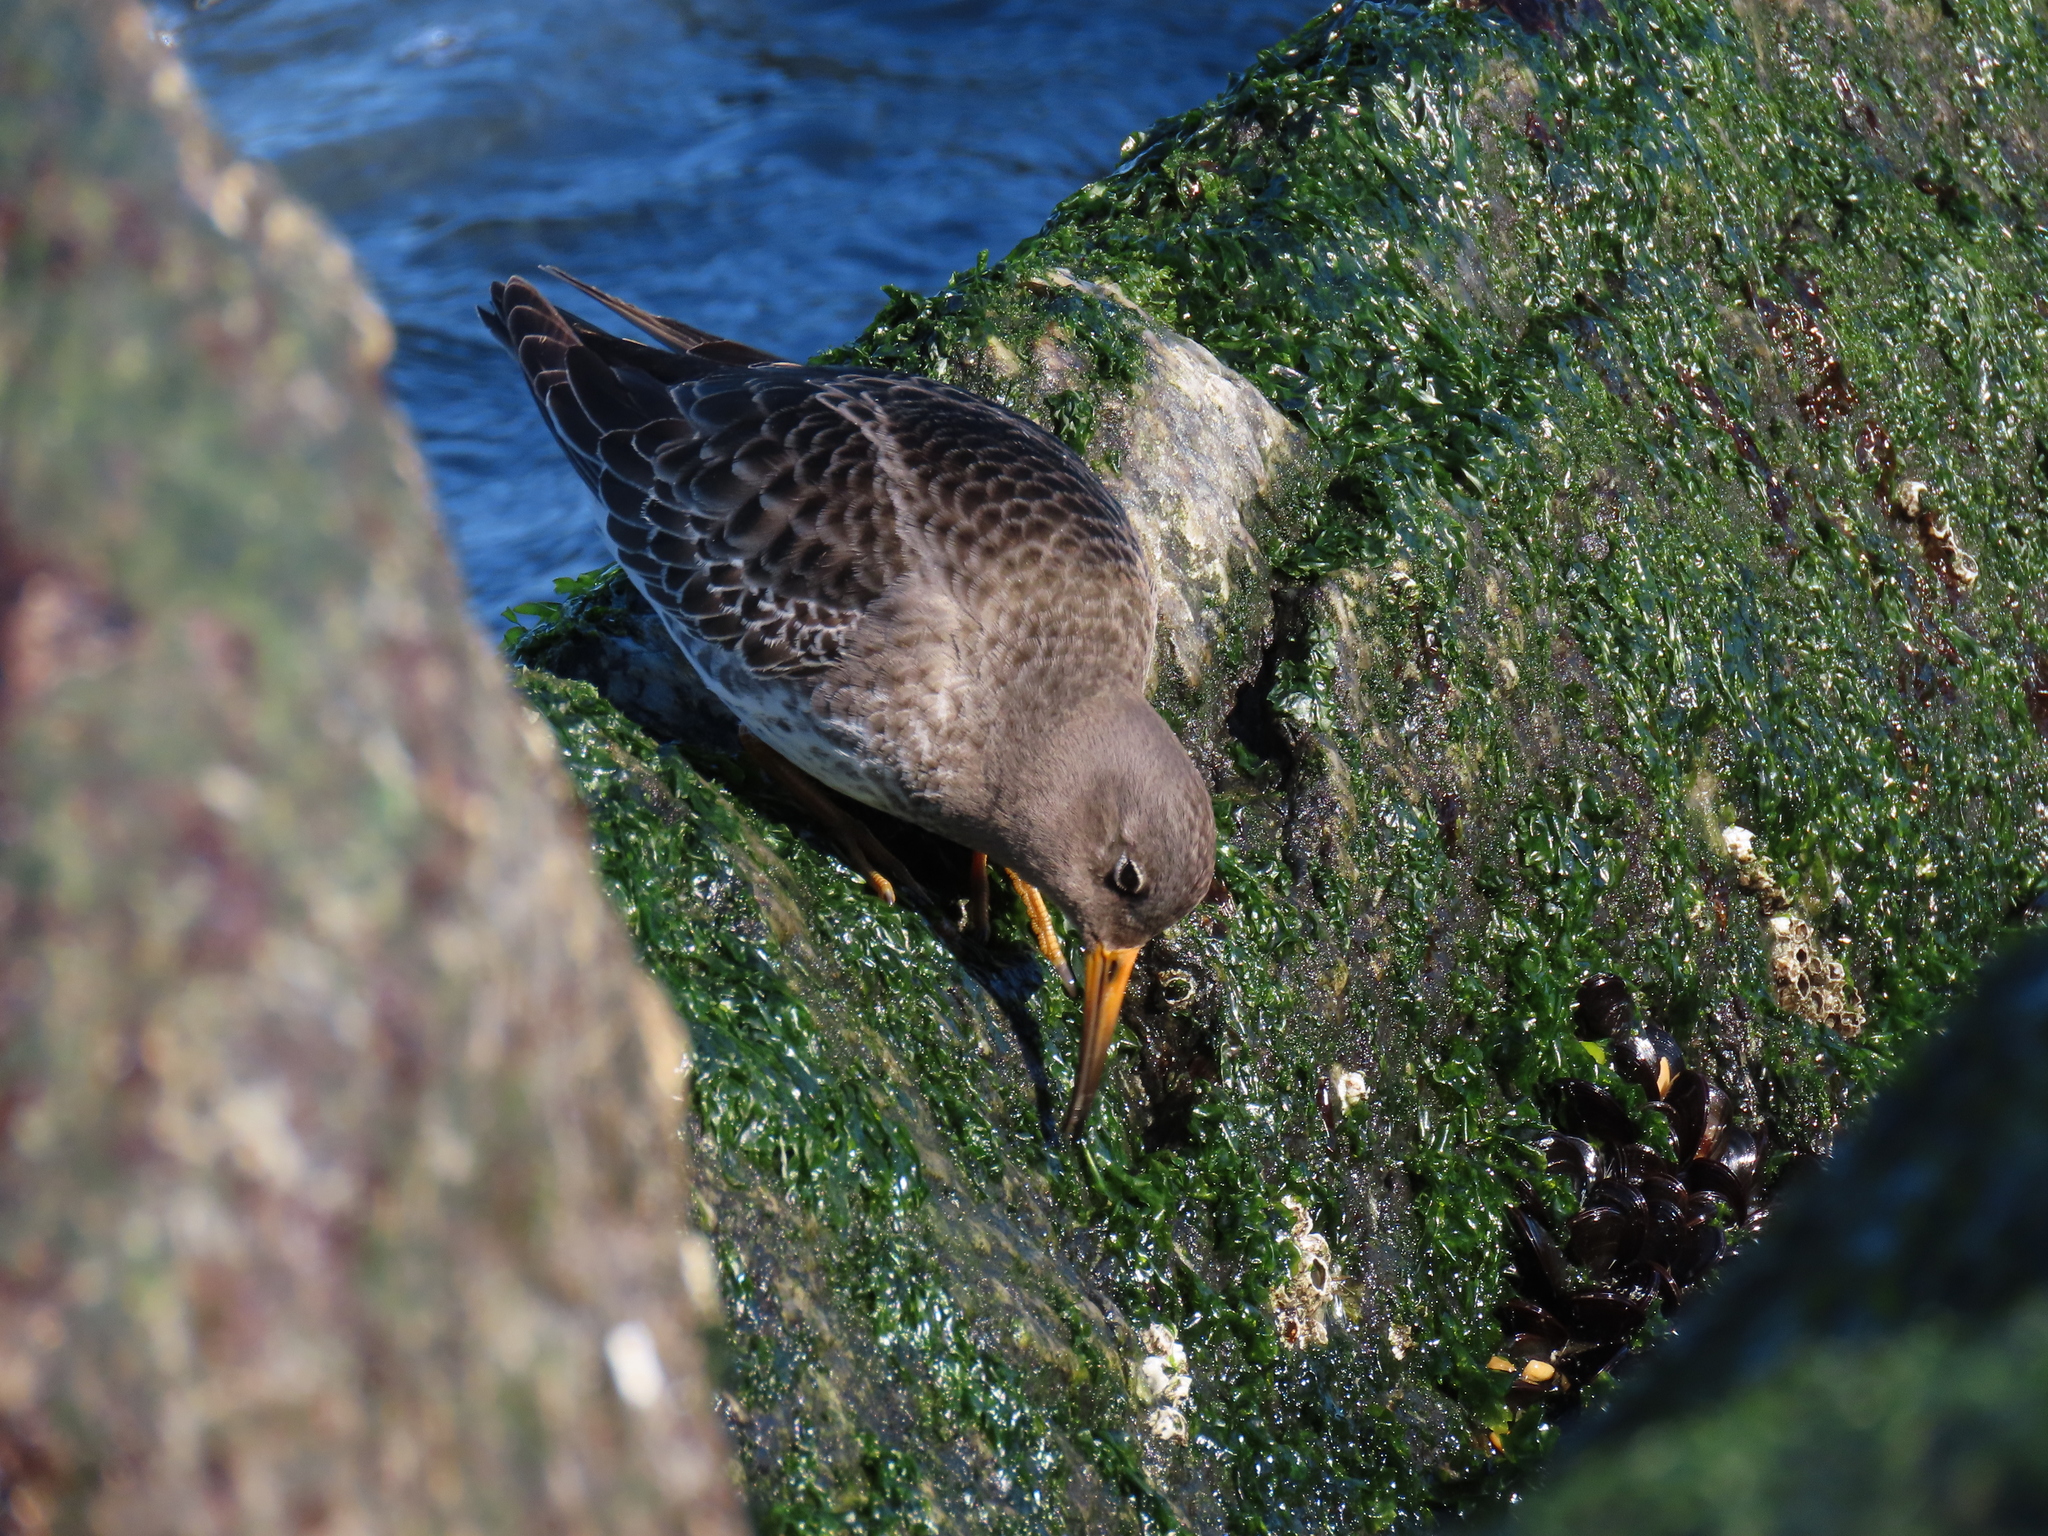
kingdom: Animalia
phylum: Chordata
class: Aves
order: Charadriiformes
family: Scolopacidae
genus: Calidris
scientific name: Calidris maritima
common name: Purple sandpiper
